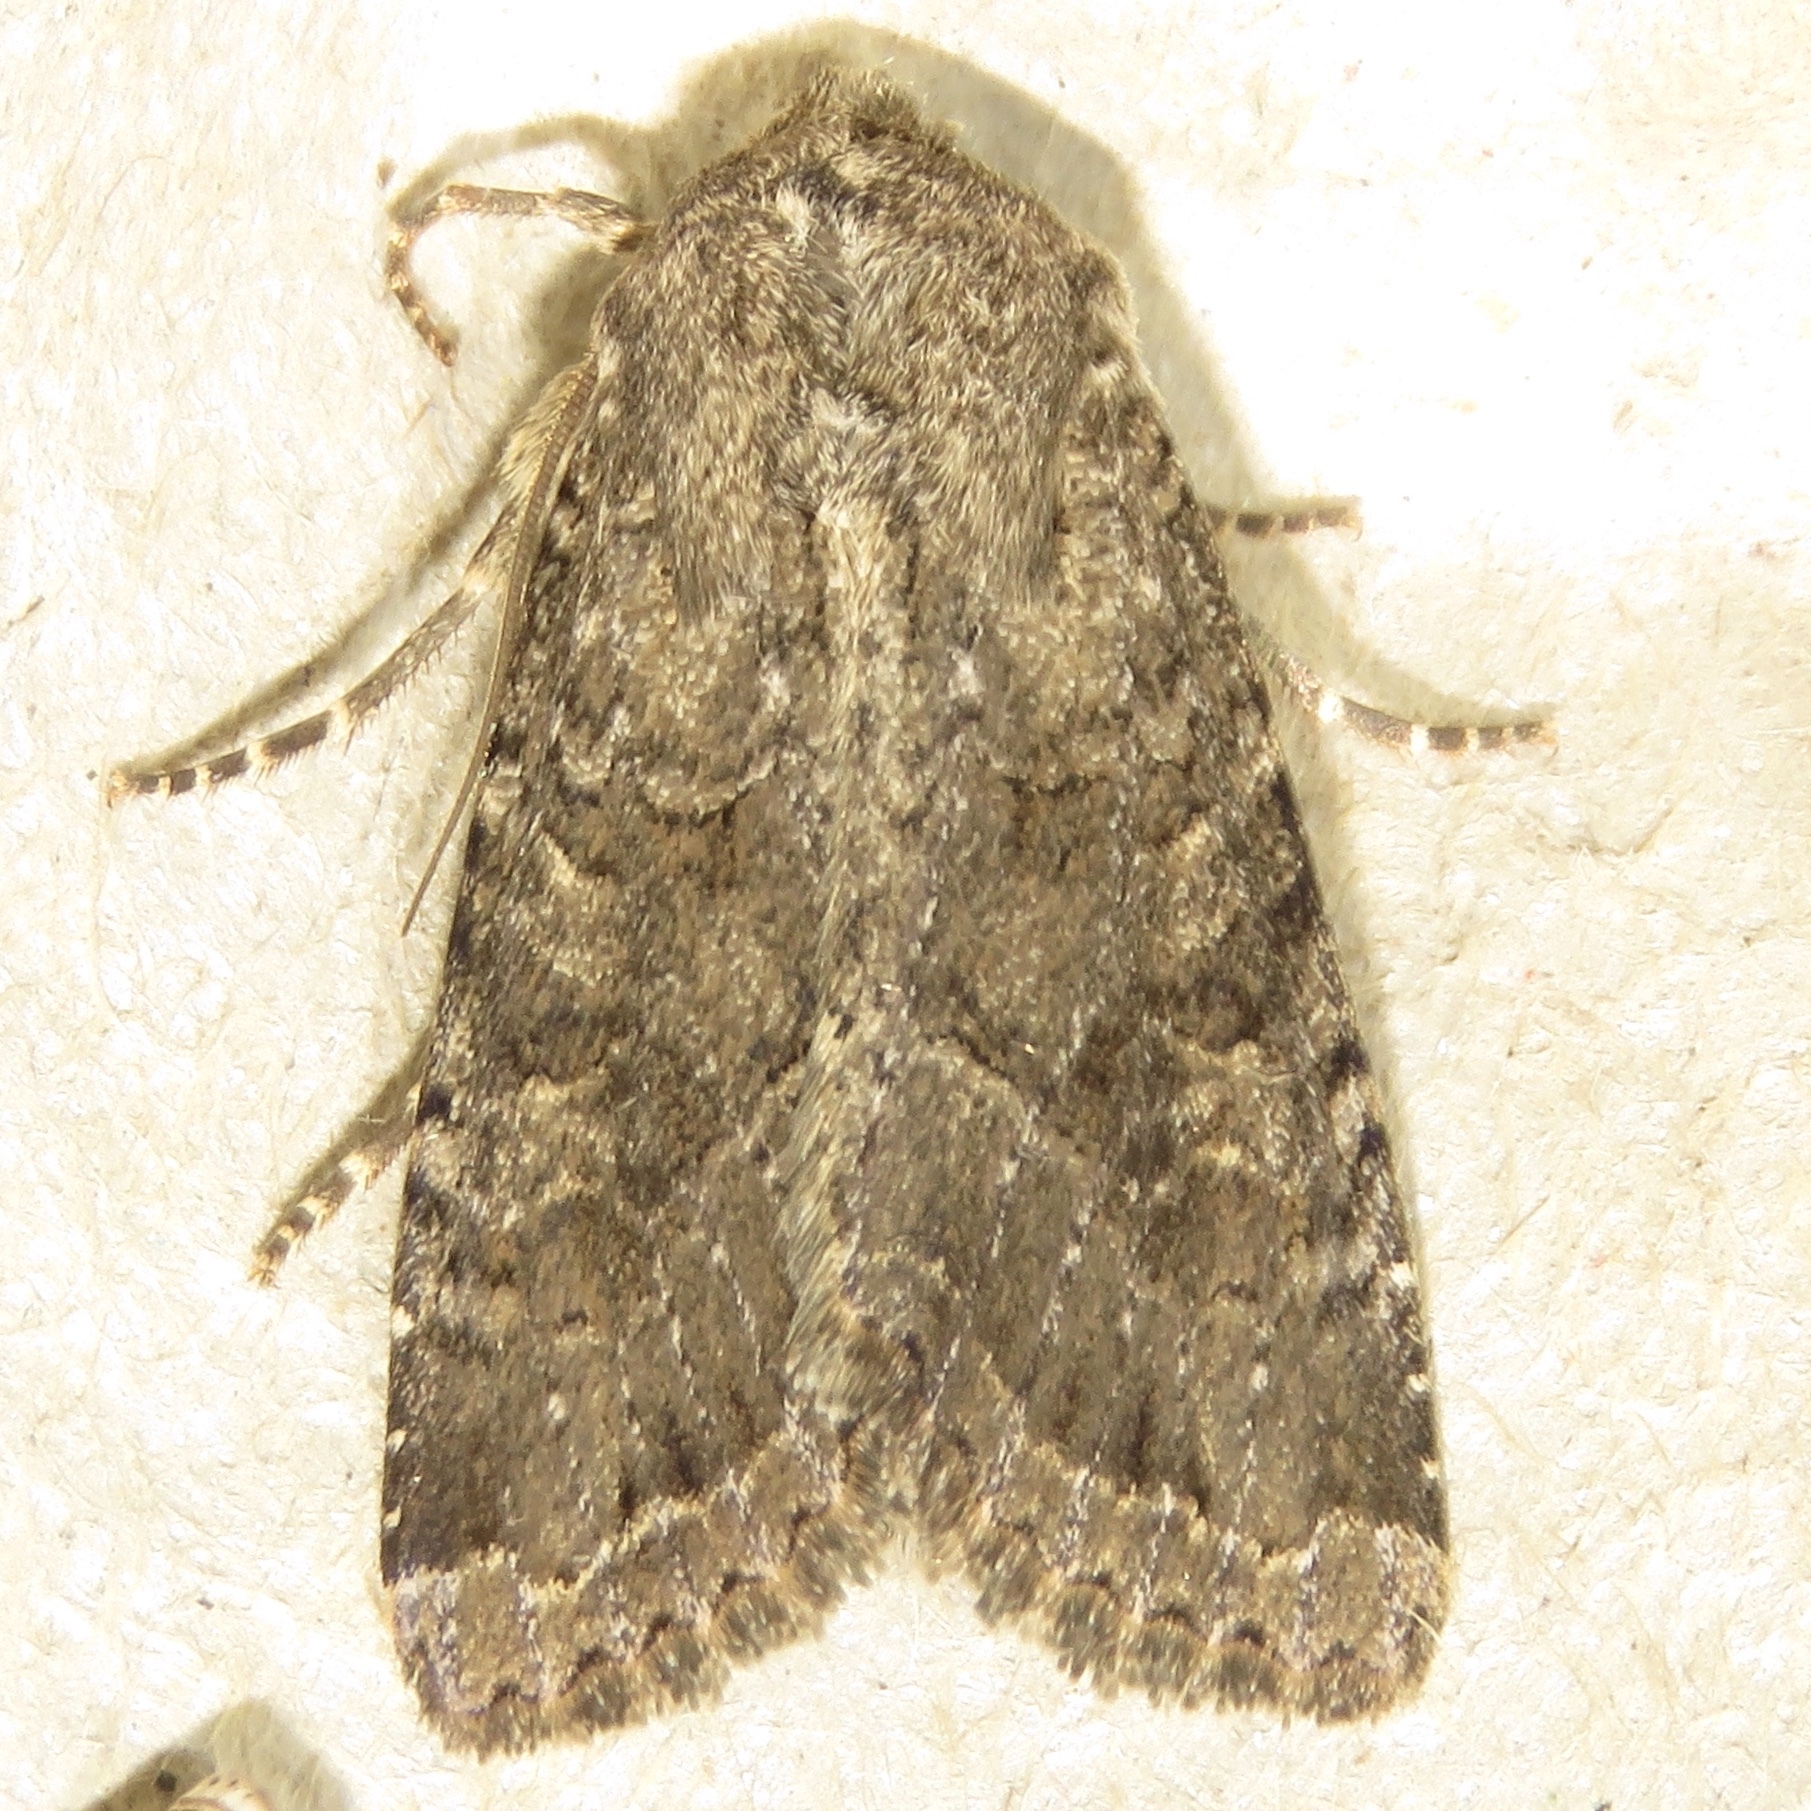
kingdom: Animalia
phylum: Arthropoda
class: Insecta
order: Lepidoptera
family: Noctuidae
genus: Apamea
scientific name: Apamea devastator
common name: Glassy cutworm
